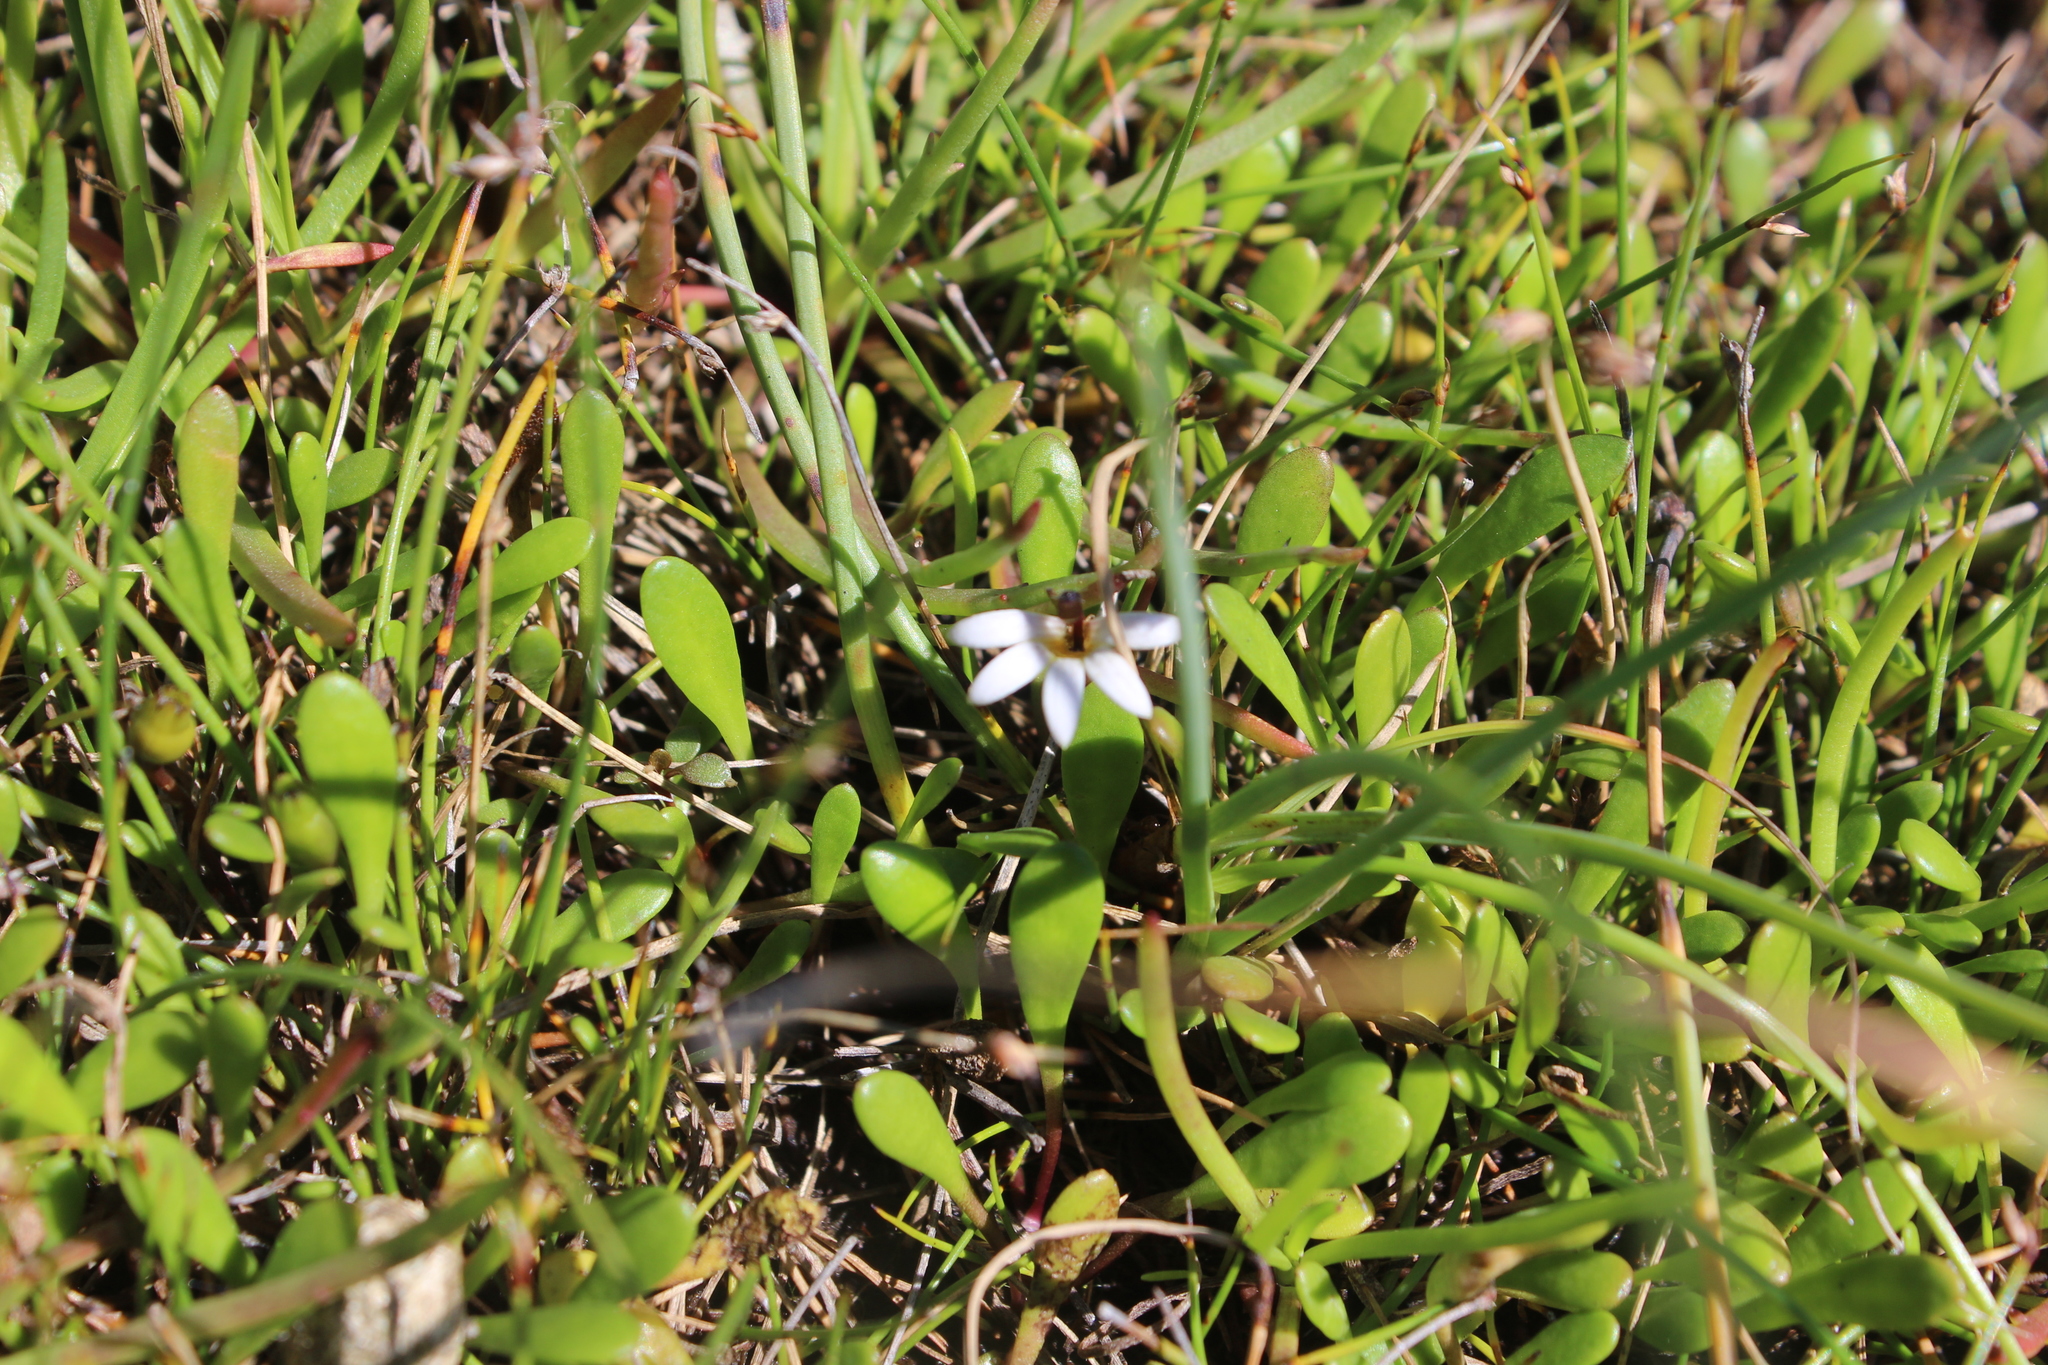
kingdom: Plantae
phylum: Tracheophyta
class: Magnoliopsida
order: Asterales
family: Goodeniaceae
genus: Goodenia
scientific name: Goodenia radicans
